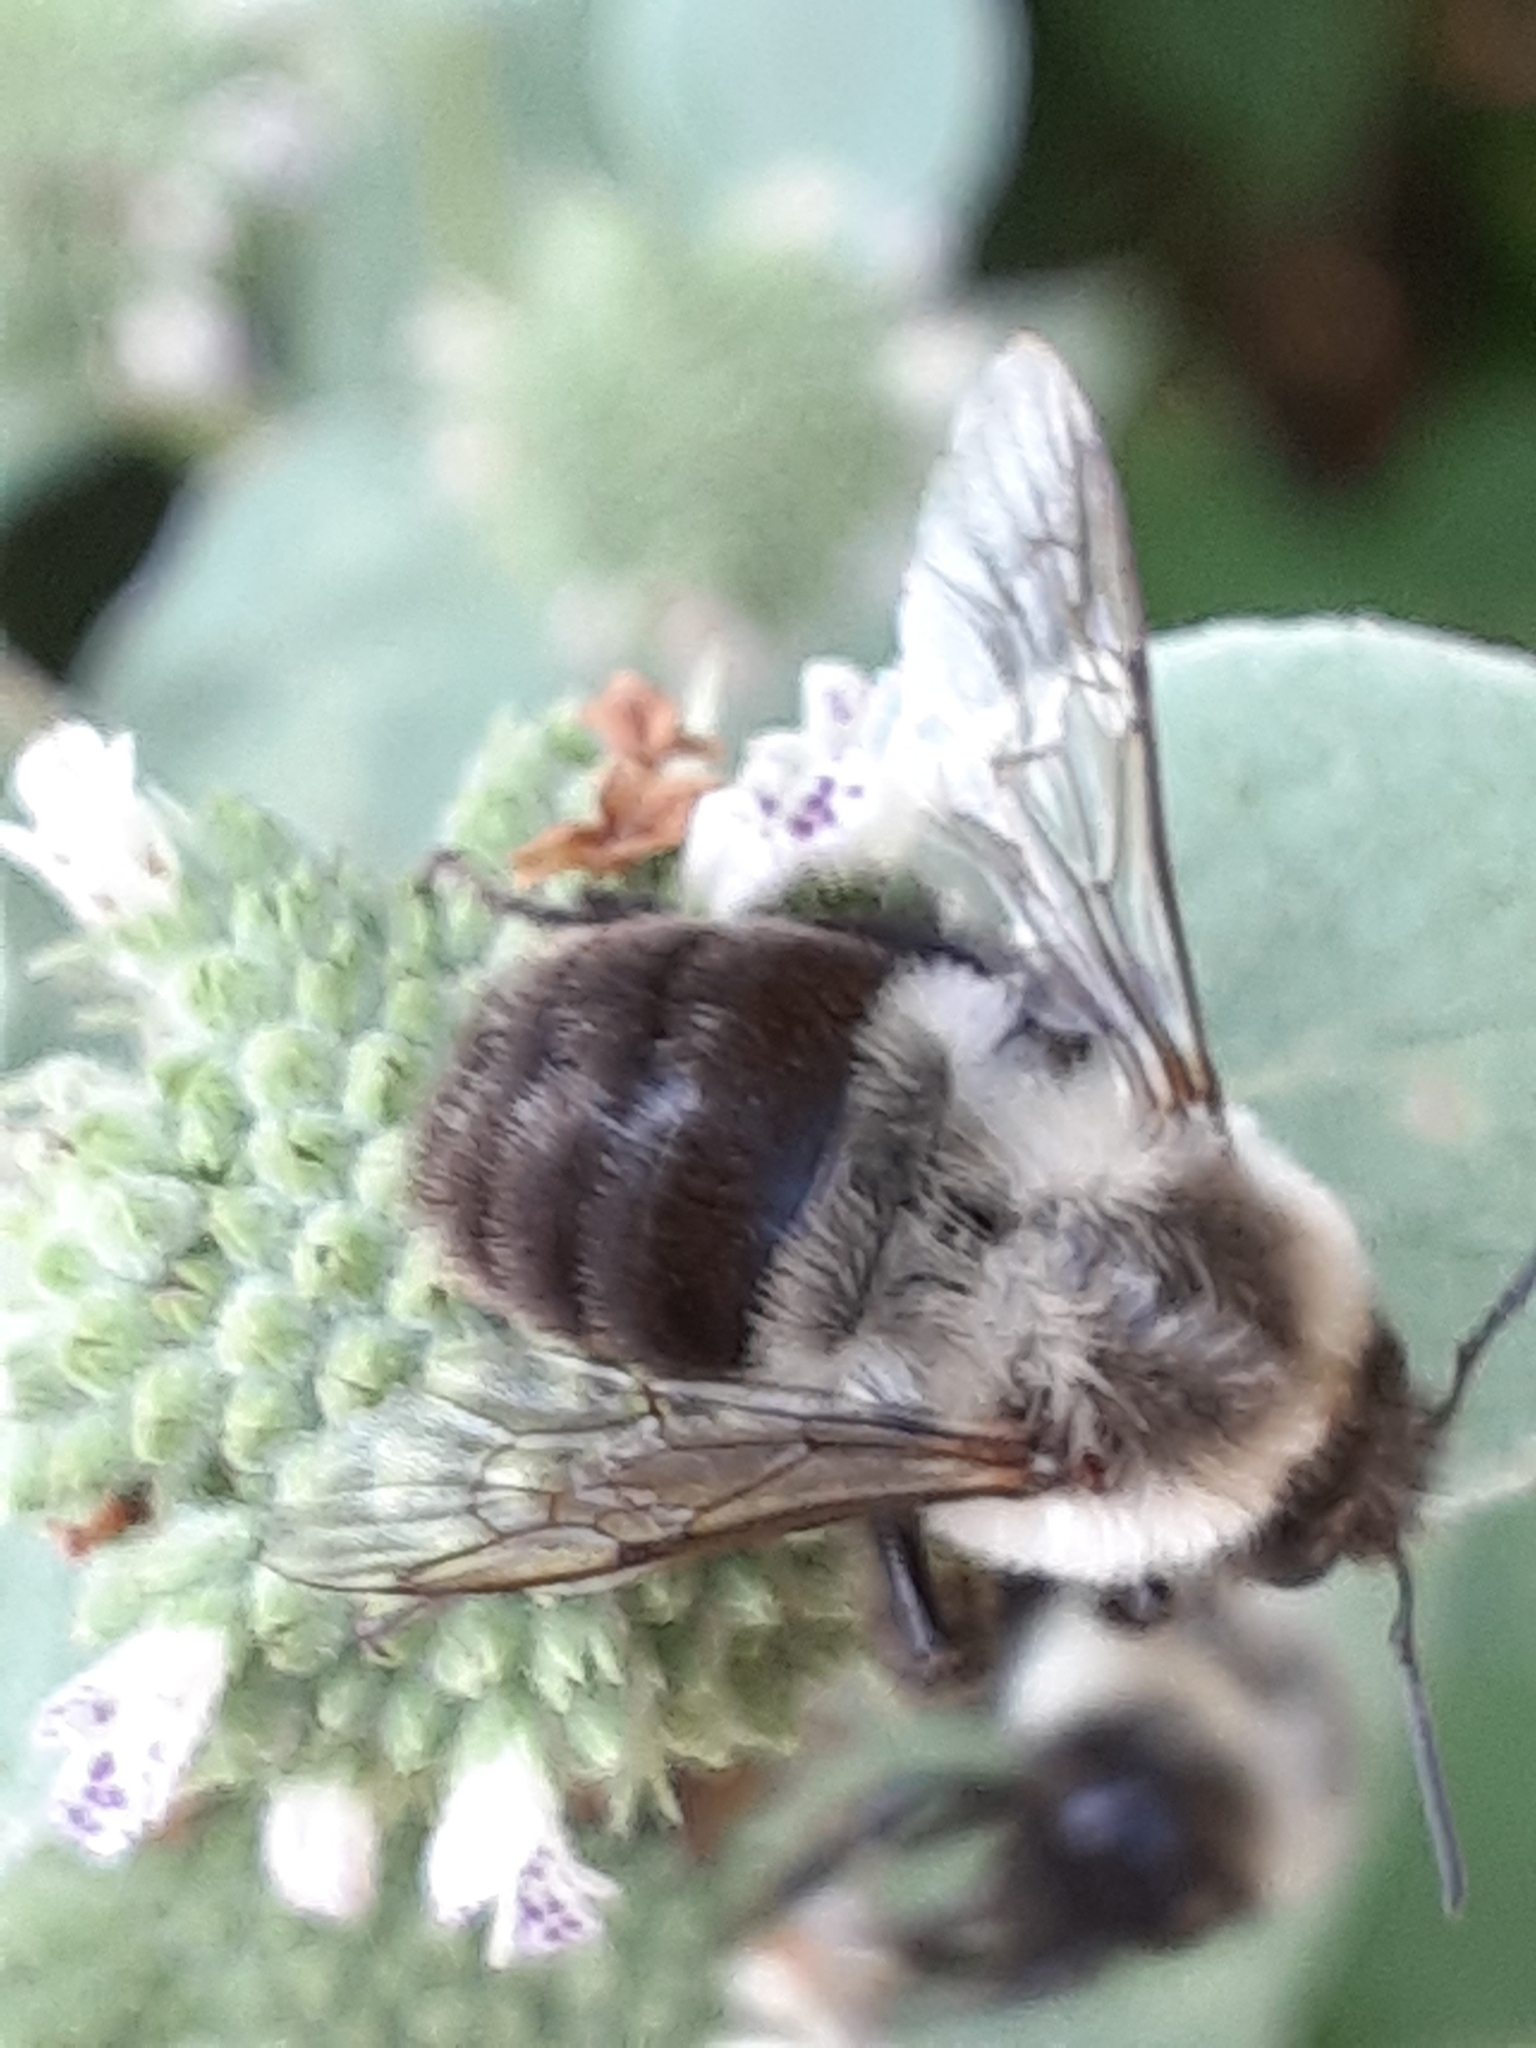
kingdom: Animalia
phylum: Arthropoda
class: Insecta
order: Hymenoptera
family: Apidae
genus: Bombus
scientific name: Bombus impatiens
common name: Common eastern bumble bee
